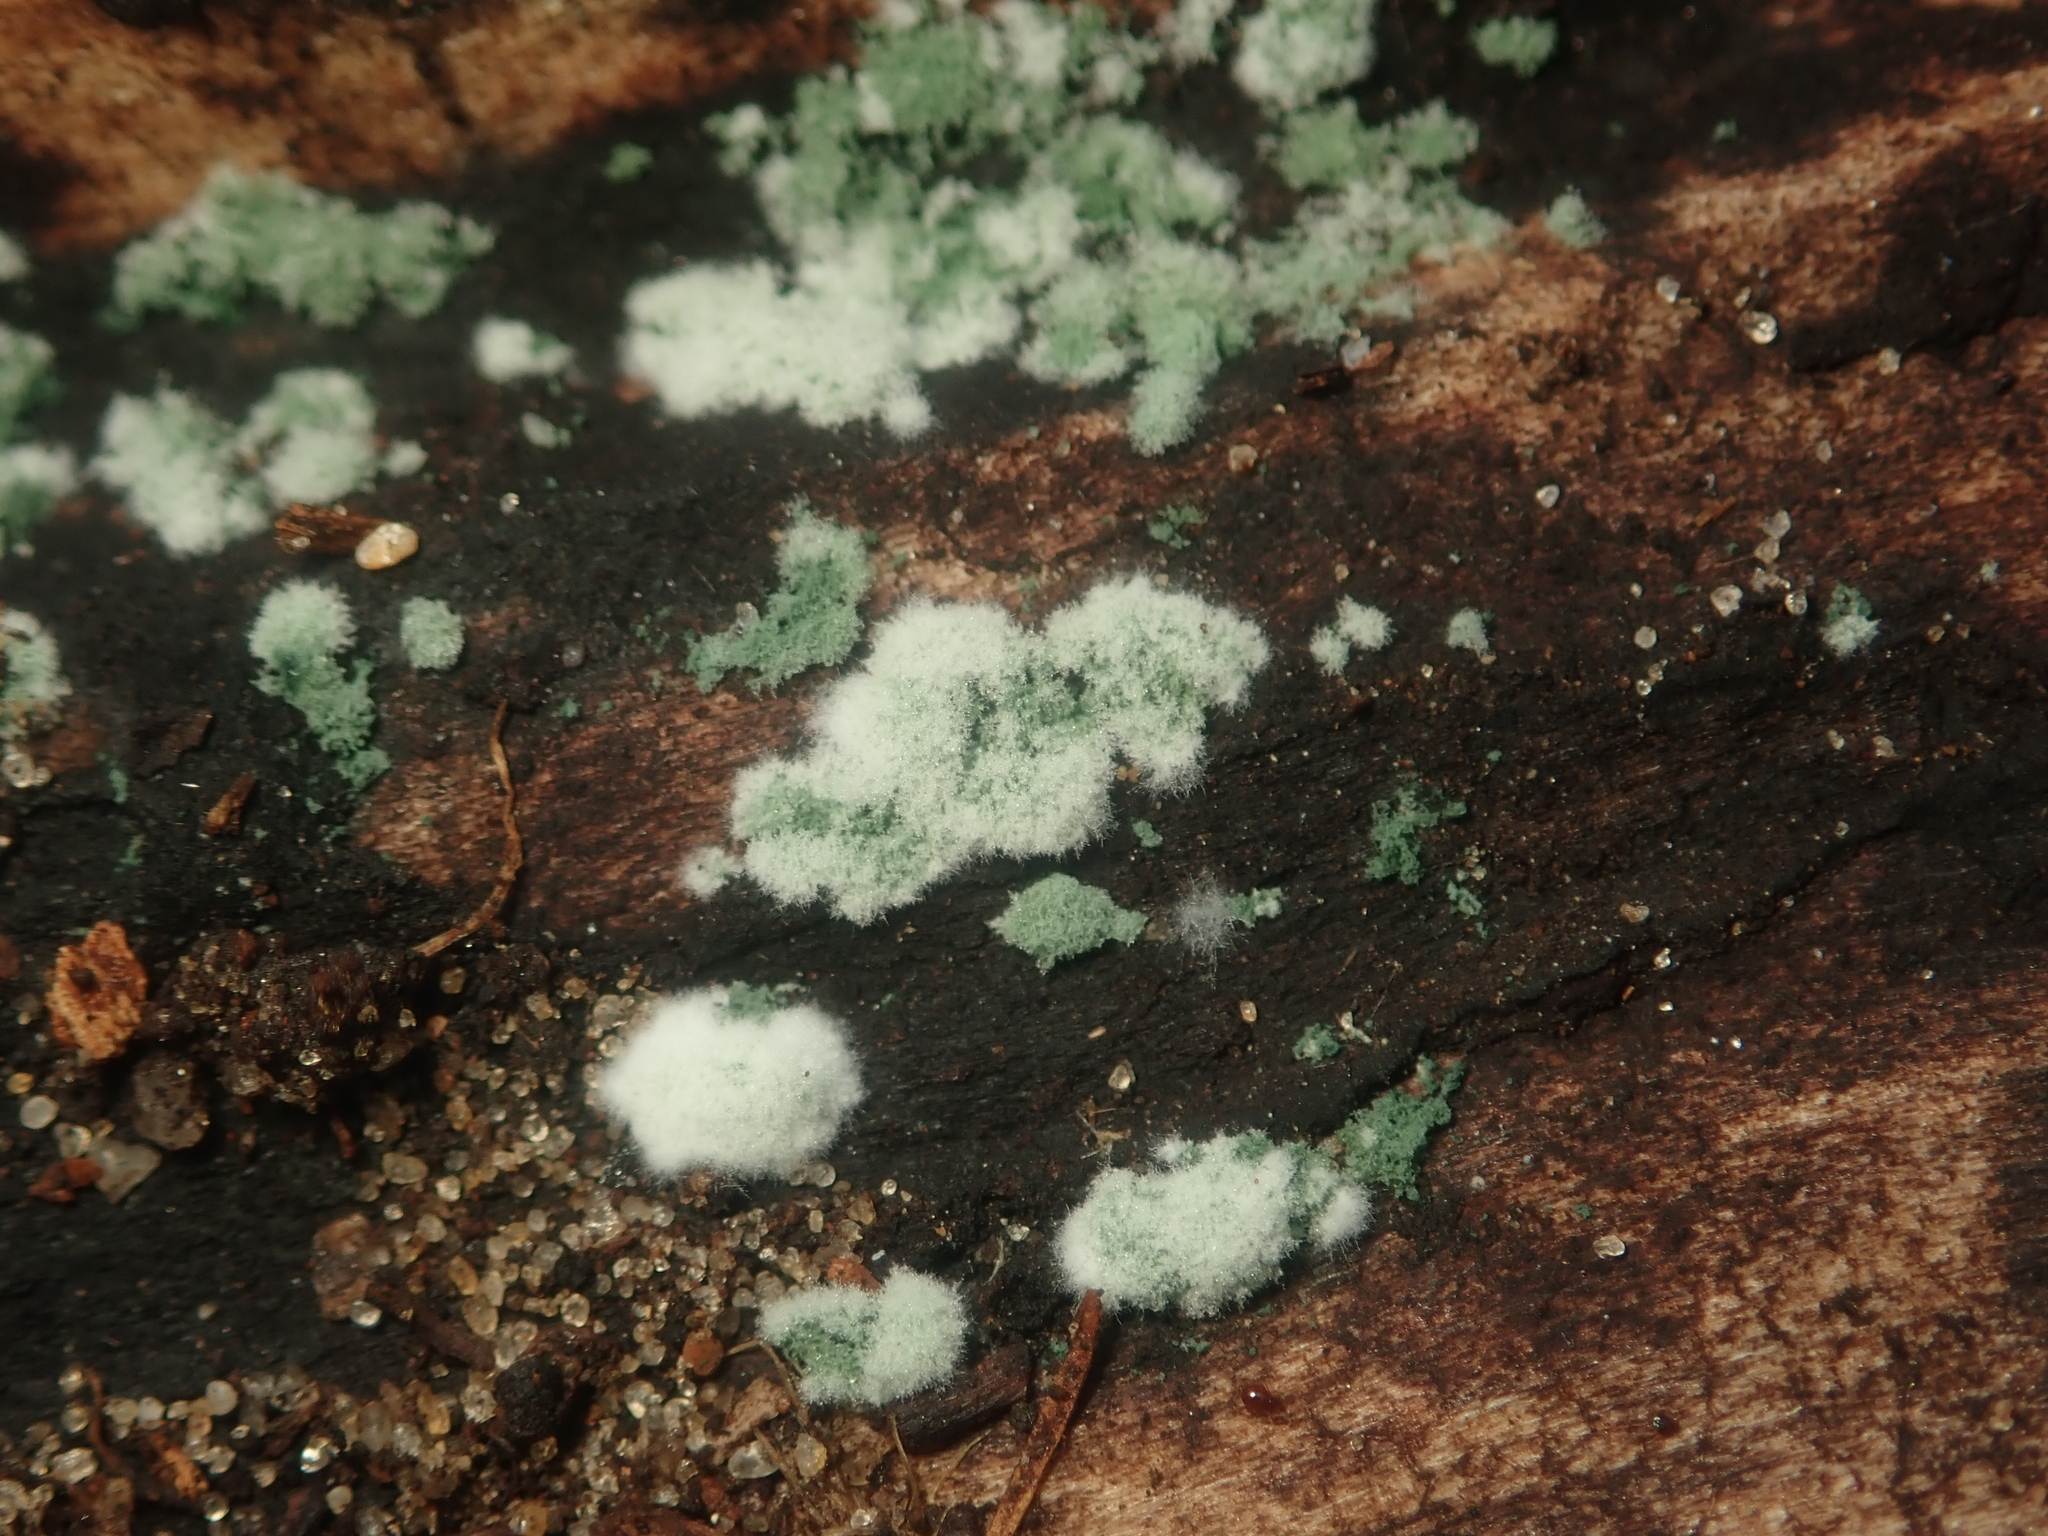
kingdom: Fungi
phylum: Ascomycota
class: Sordariomycetes
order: Hypocreales
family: Hypocreaceae
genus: Trichoderma
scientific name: Trichoderma viride
